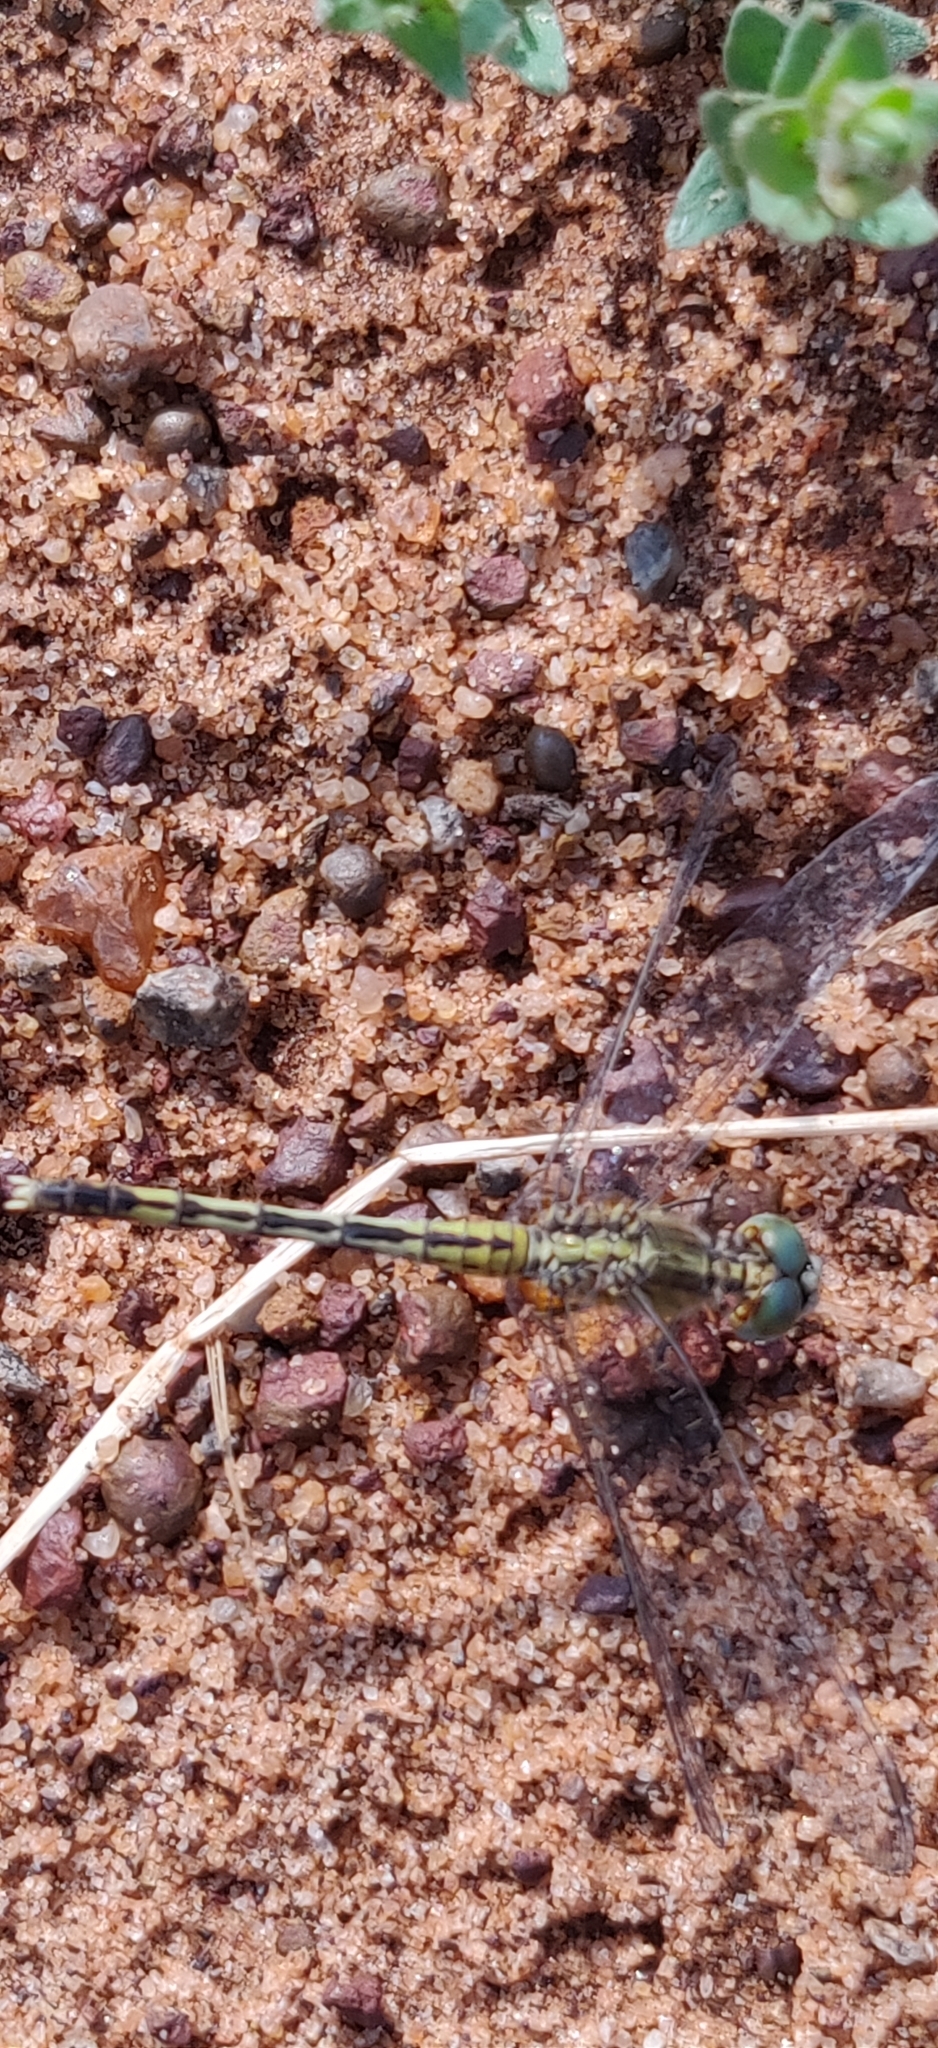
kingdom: Animalia
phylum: Arthropoda
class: Insecta
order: Odonata
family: Libellulidae
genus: Diplacodes
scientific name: Diplacodes trivialis
